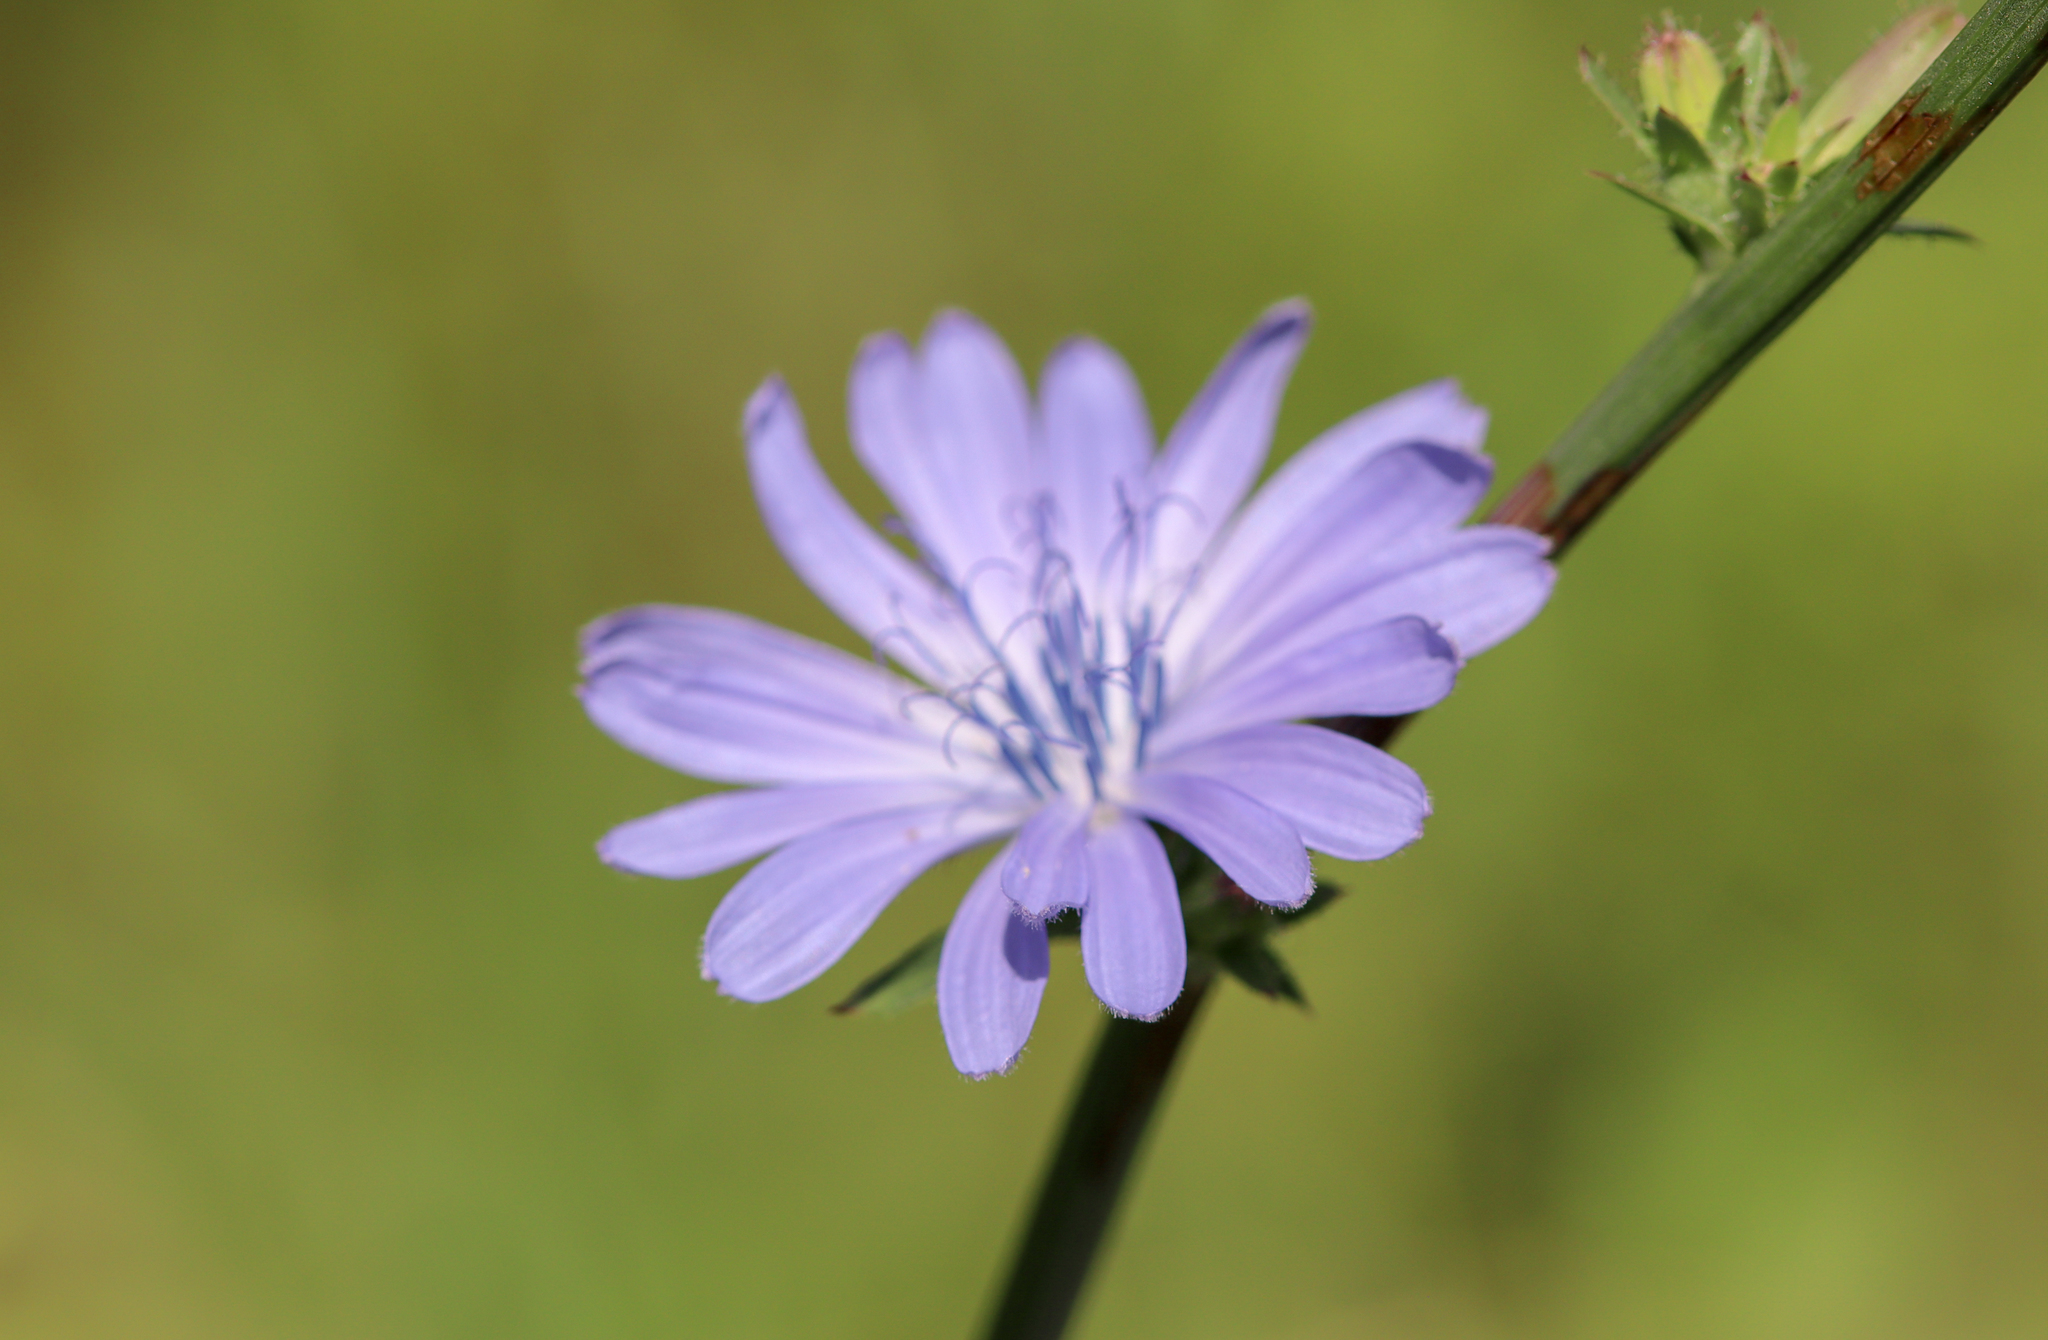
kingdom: Plantae
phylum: Tracheophyta
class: Magnoliopsida
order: Asterales
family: Asteraceae
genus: Cichorium
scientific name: Cichorium intybus
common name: Chicory
